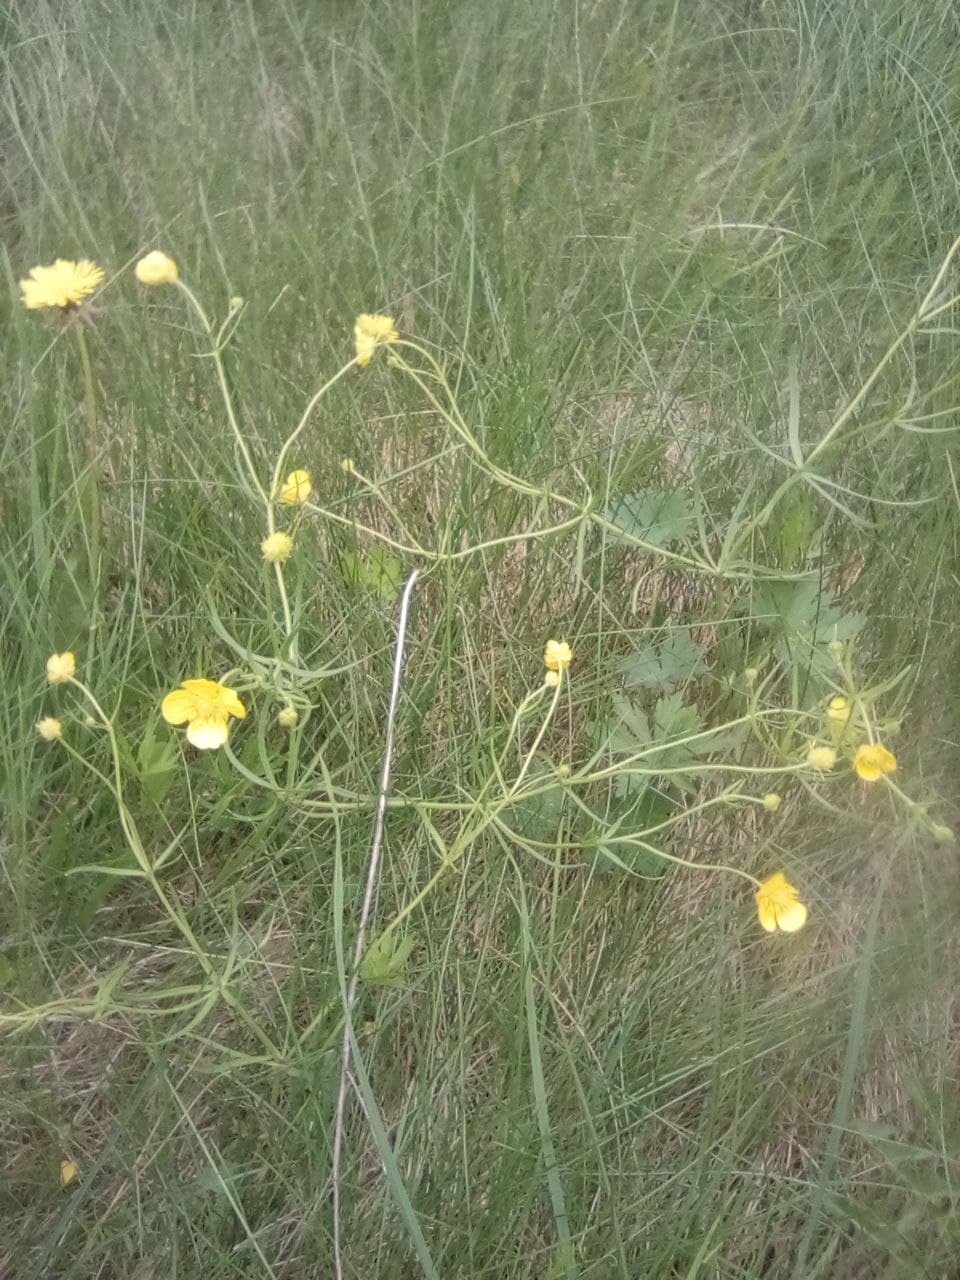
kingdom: Plantae
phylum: Tracheophyta
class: Magnoliopsida
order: Ranunculales
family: Ranunculaceae
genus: Ranunculus
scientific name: Ranunculus auricomus
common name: Goldilocks buttercup
